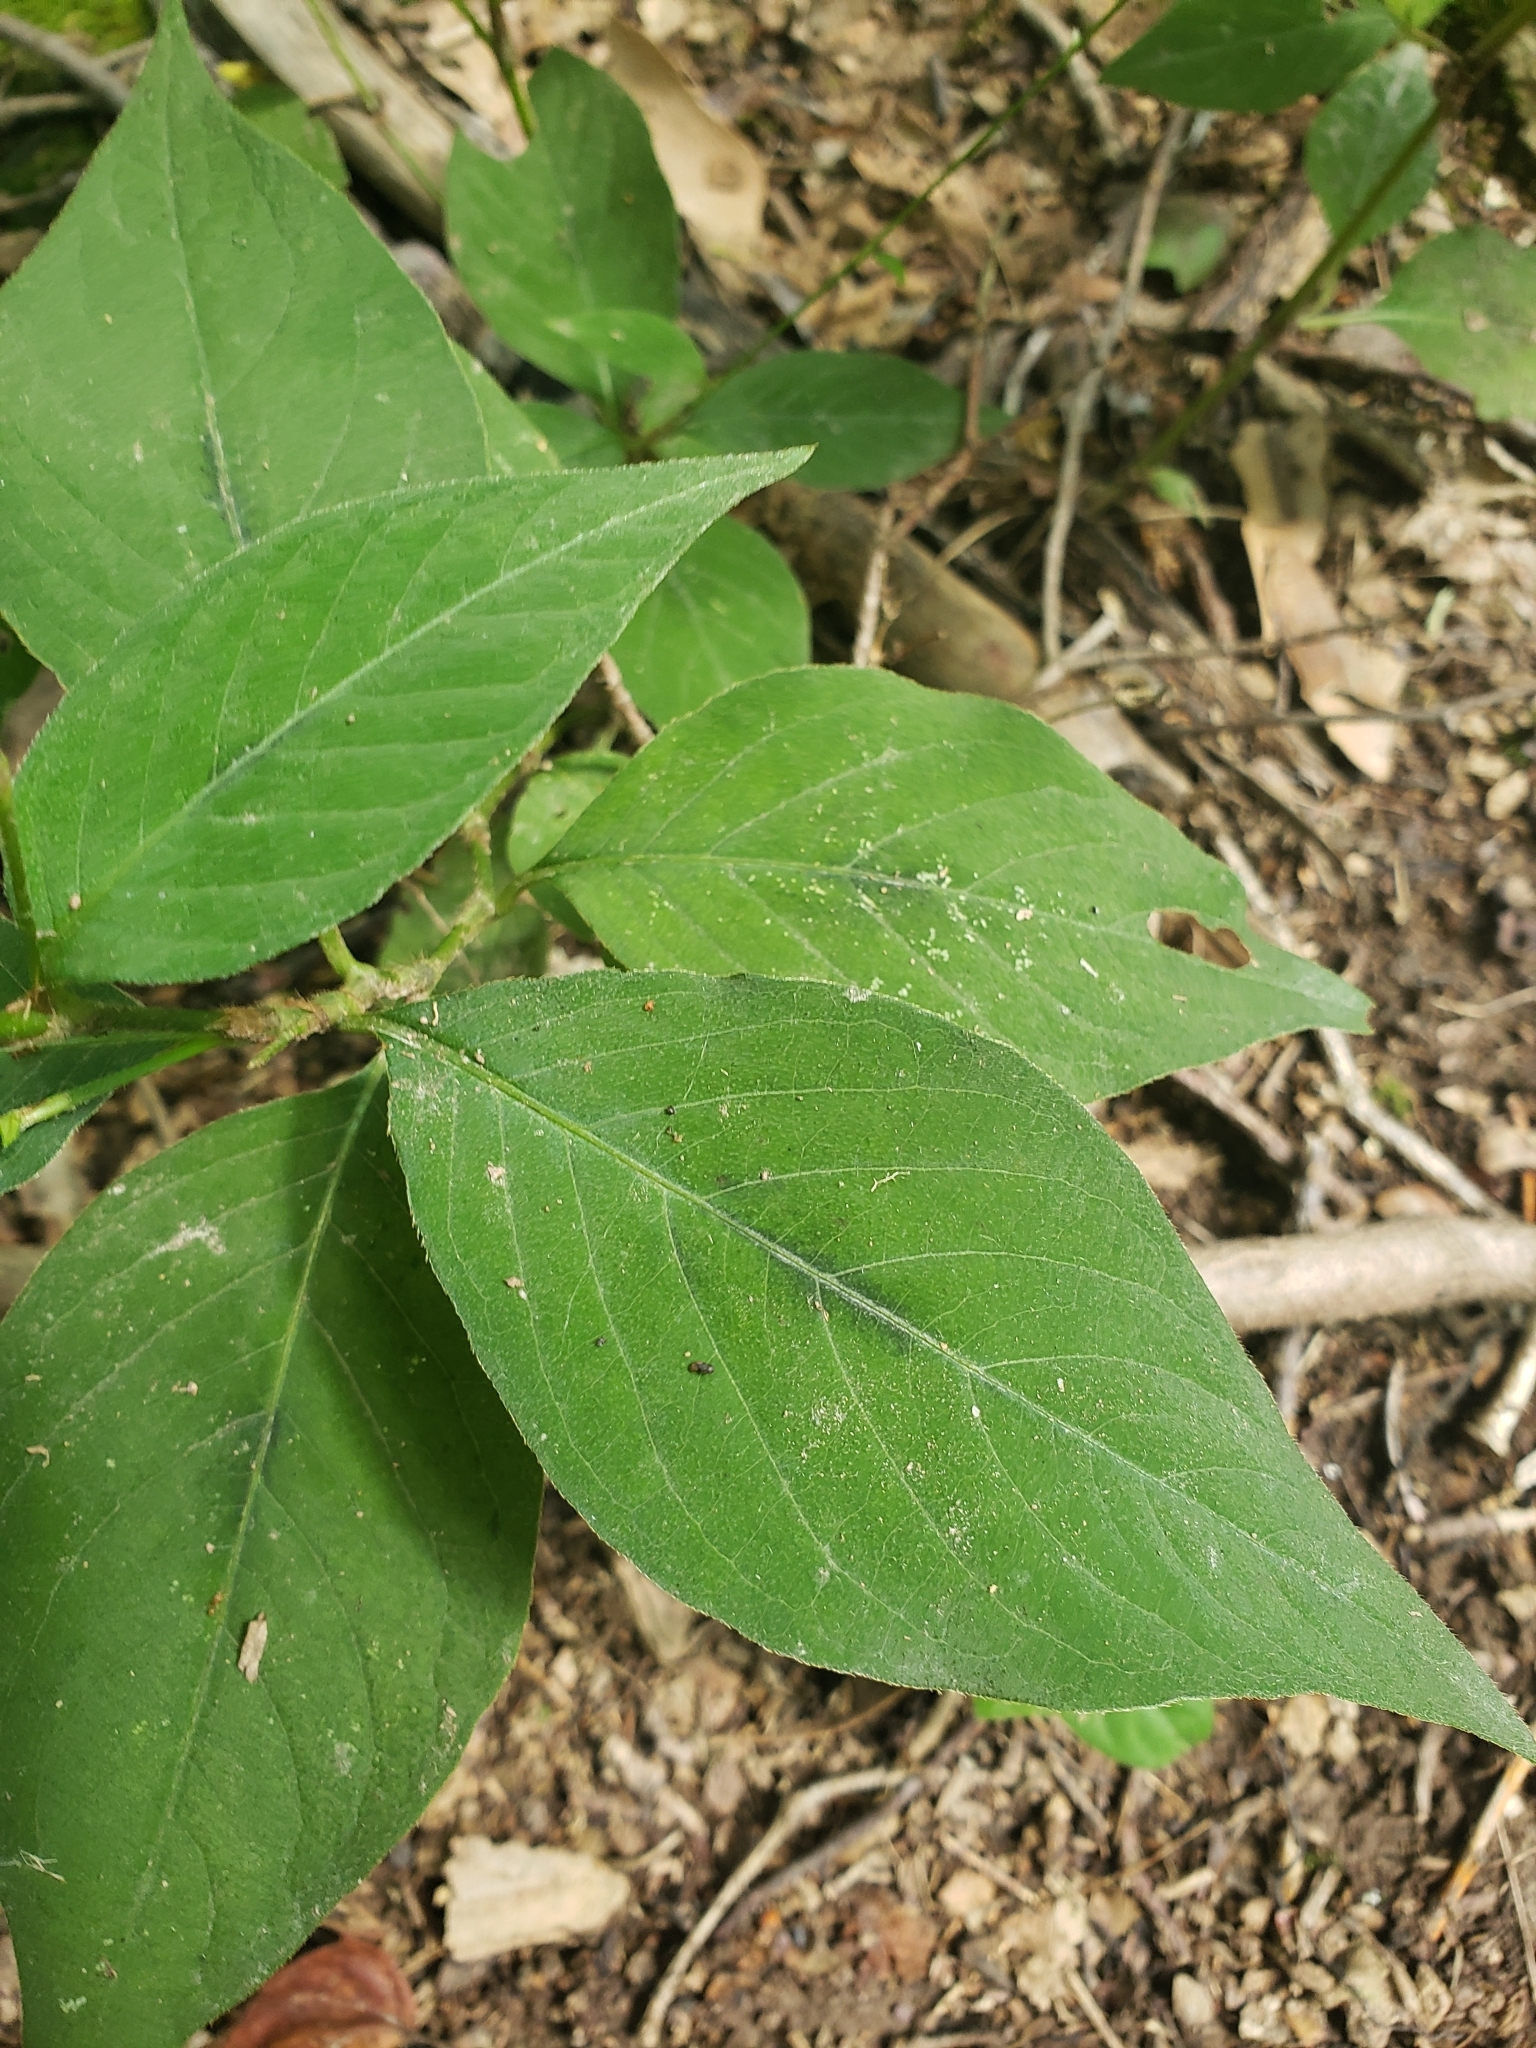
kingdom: Plantae
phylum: Tracheophyta
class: Magnoliopsida
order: Caryophyllales
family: Polygonaceae
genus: Persicaria
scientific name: Persicaria virginiana
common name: Jumpseed
